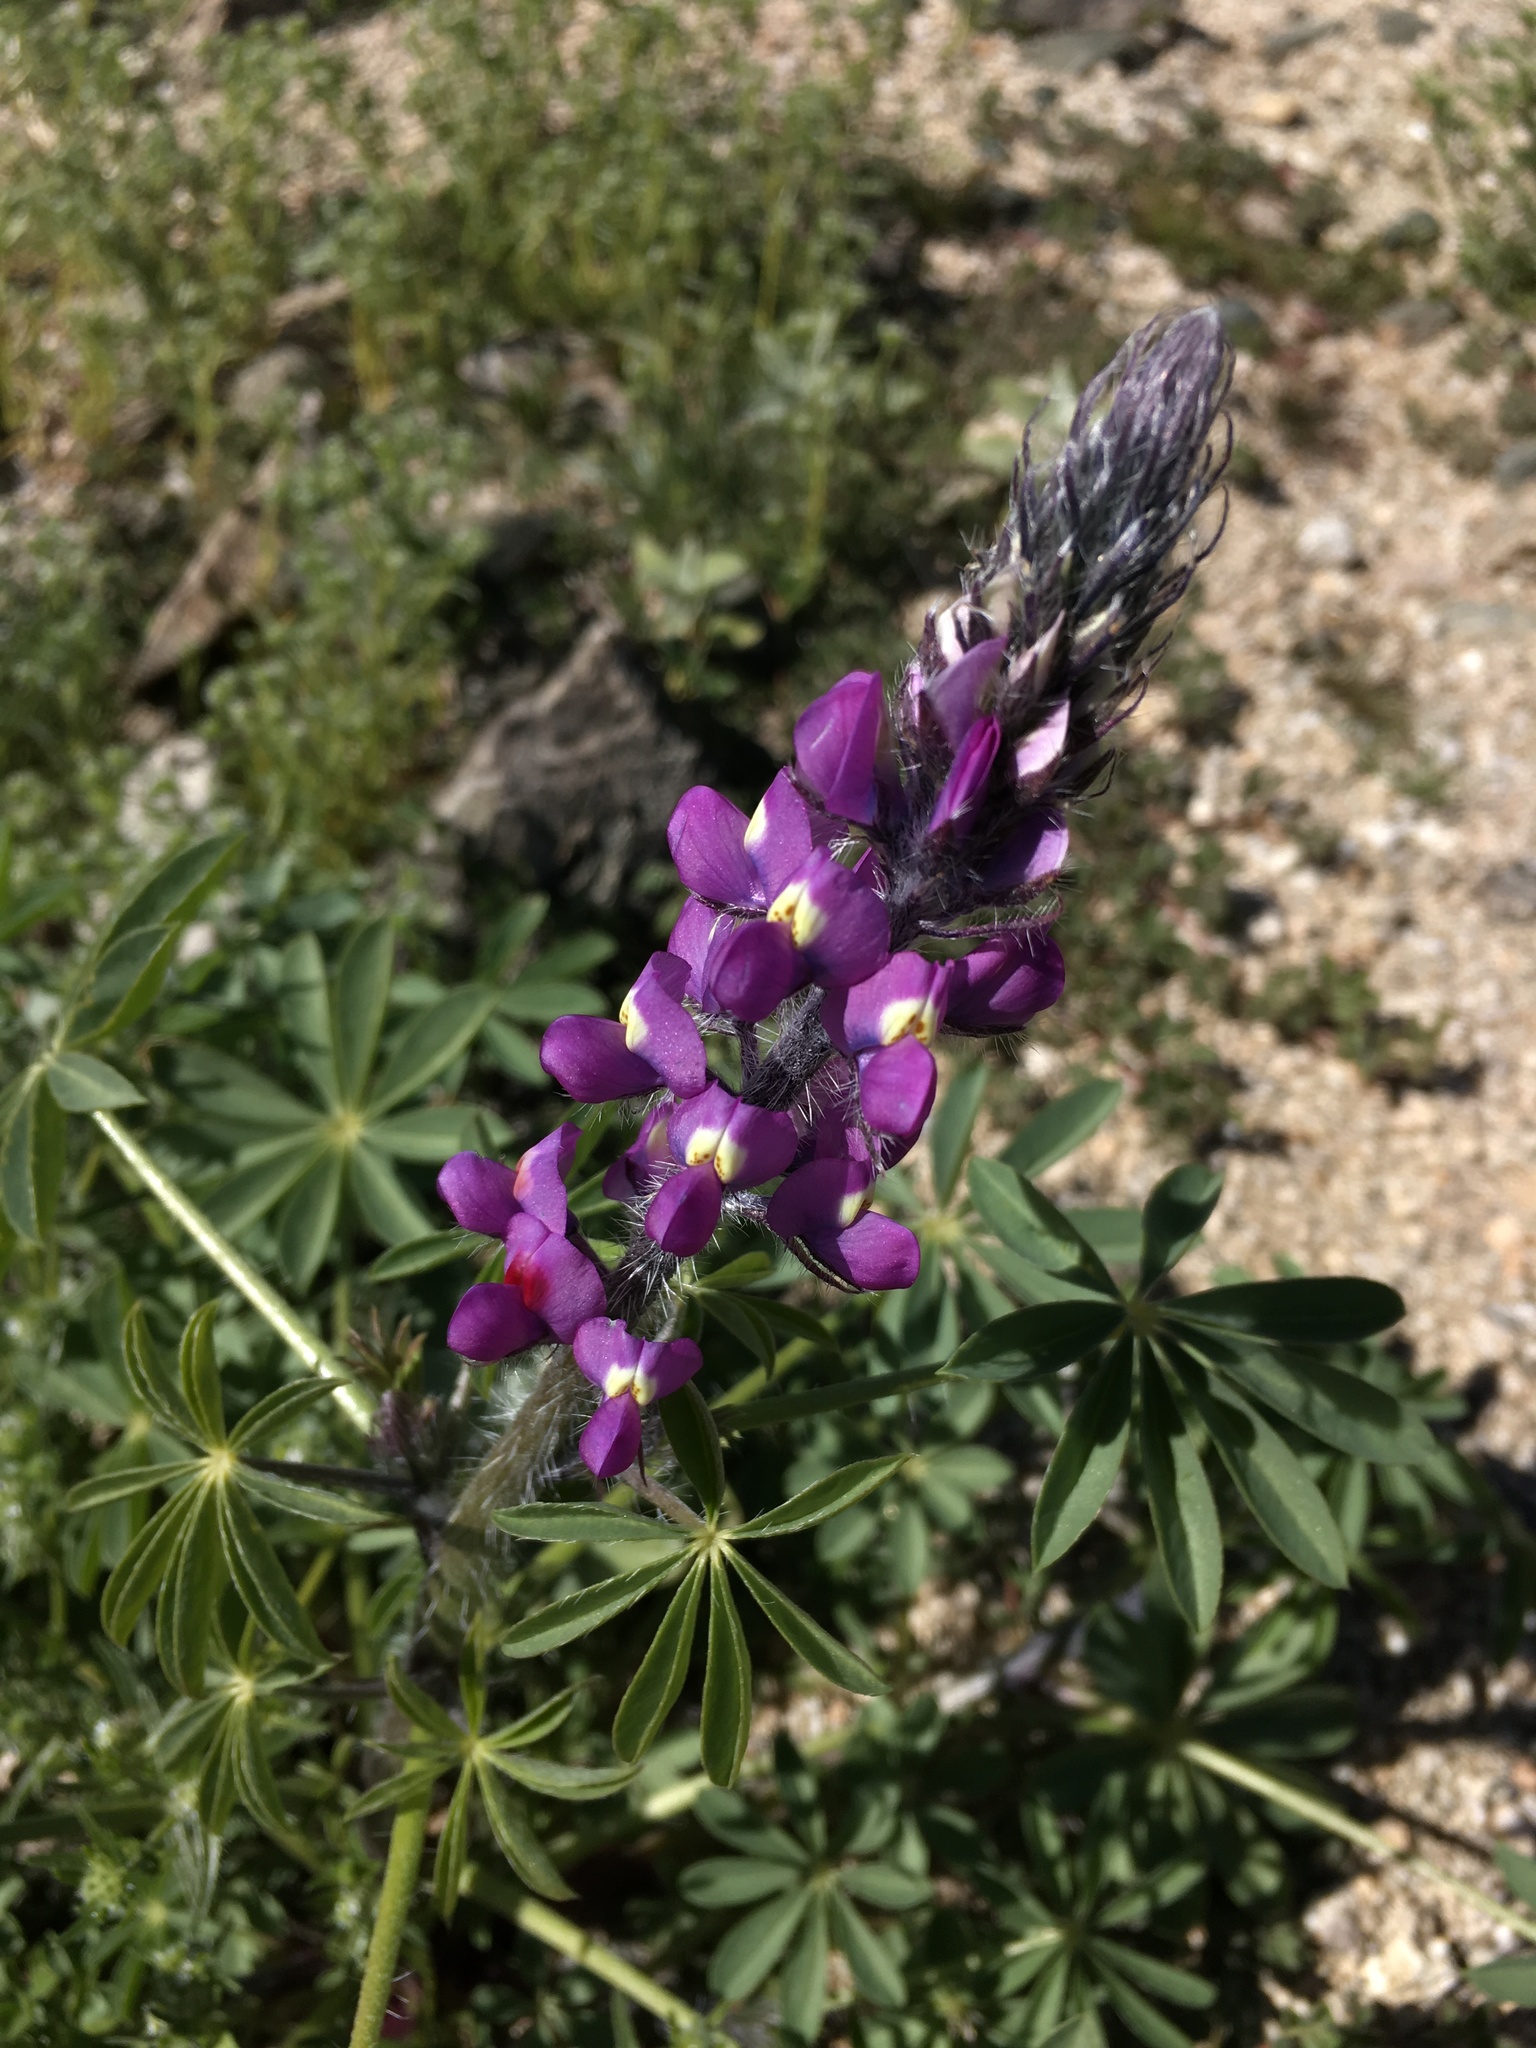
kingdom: Plantae
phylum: Tracheophyta
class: Magnoliopsida
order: Fabales
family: Fabaceae
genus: Lupinus
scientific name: Lupinus arizonicus
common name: Arizona lupine
